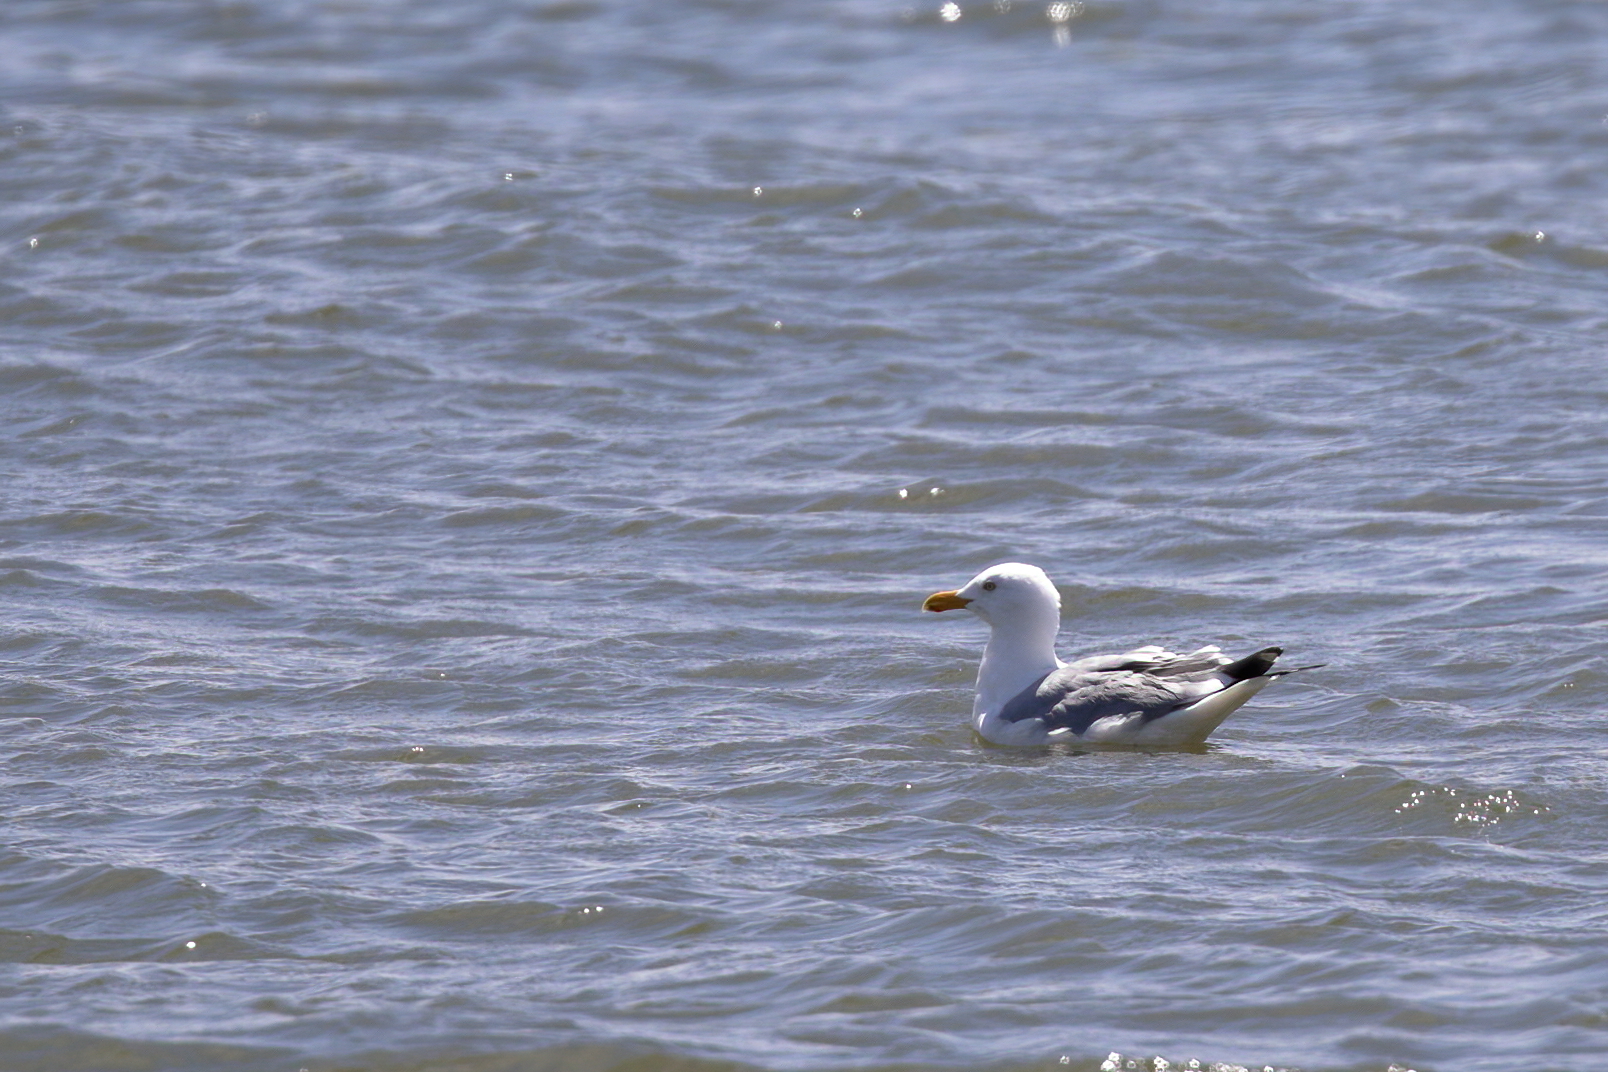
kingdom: Animalia
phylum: Chordata
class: Aves
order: Charadriiformes
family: Laridae
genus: Larus
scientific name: Larus argentatus
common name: Herring gull
